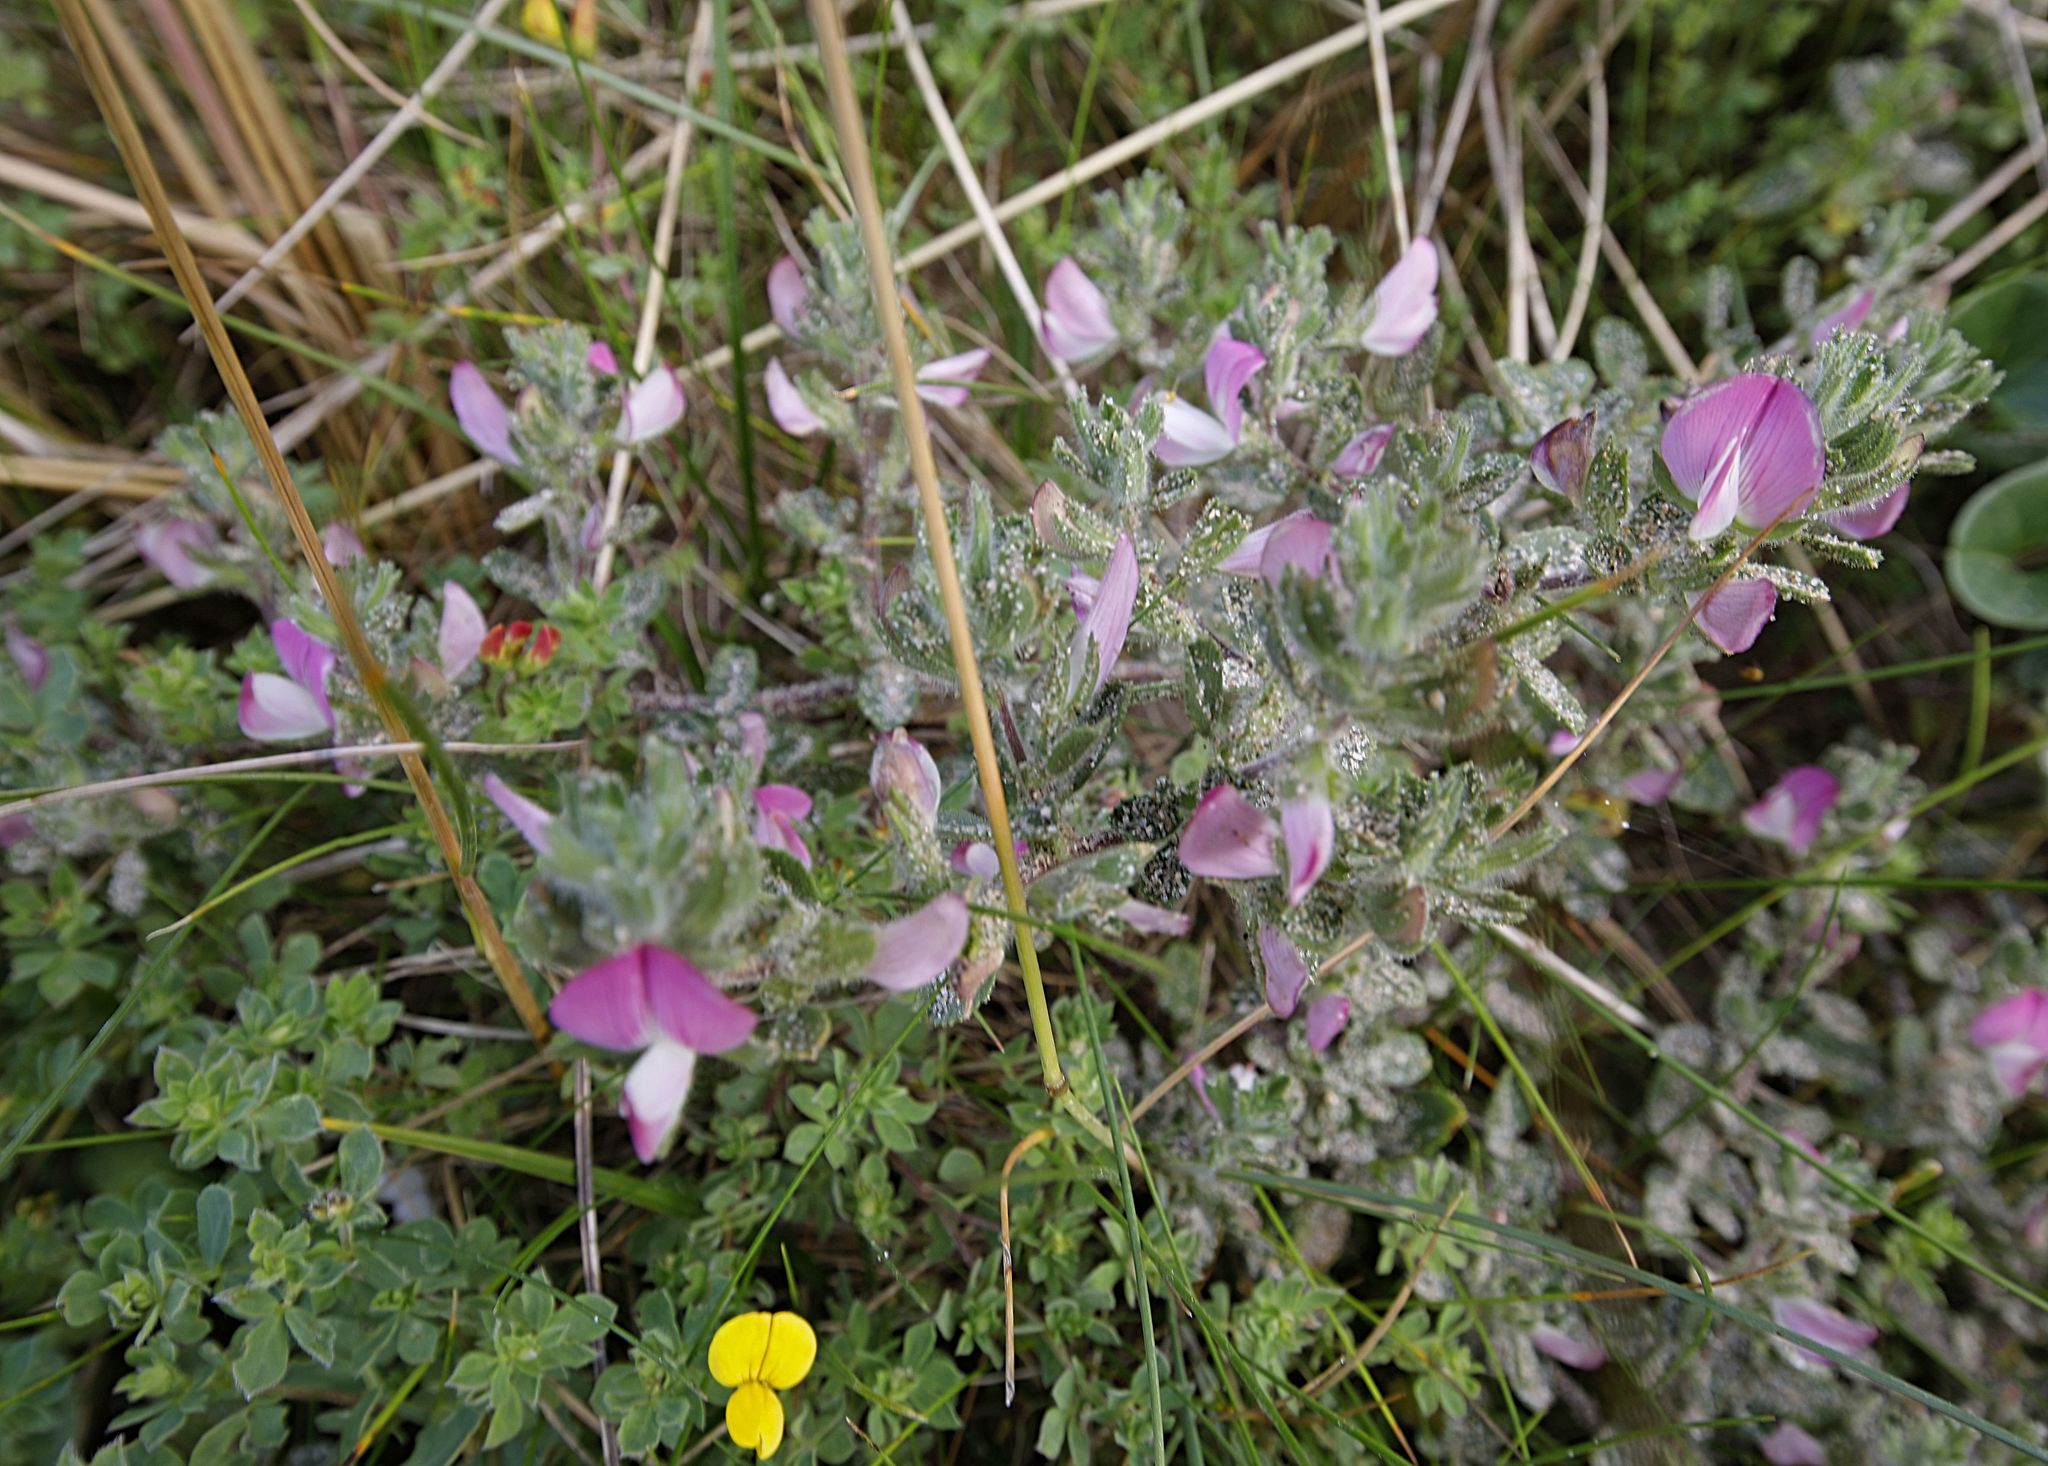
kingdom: Plantae
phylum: Tracheophyta
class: Magnoliopsida
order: Fabales
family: Fabaceae
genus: Ononis
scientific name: Ononis spinosa
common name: Spiny restharrow
